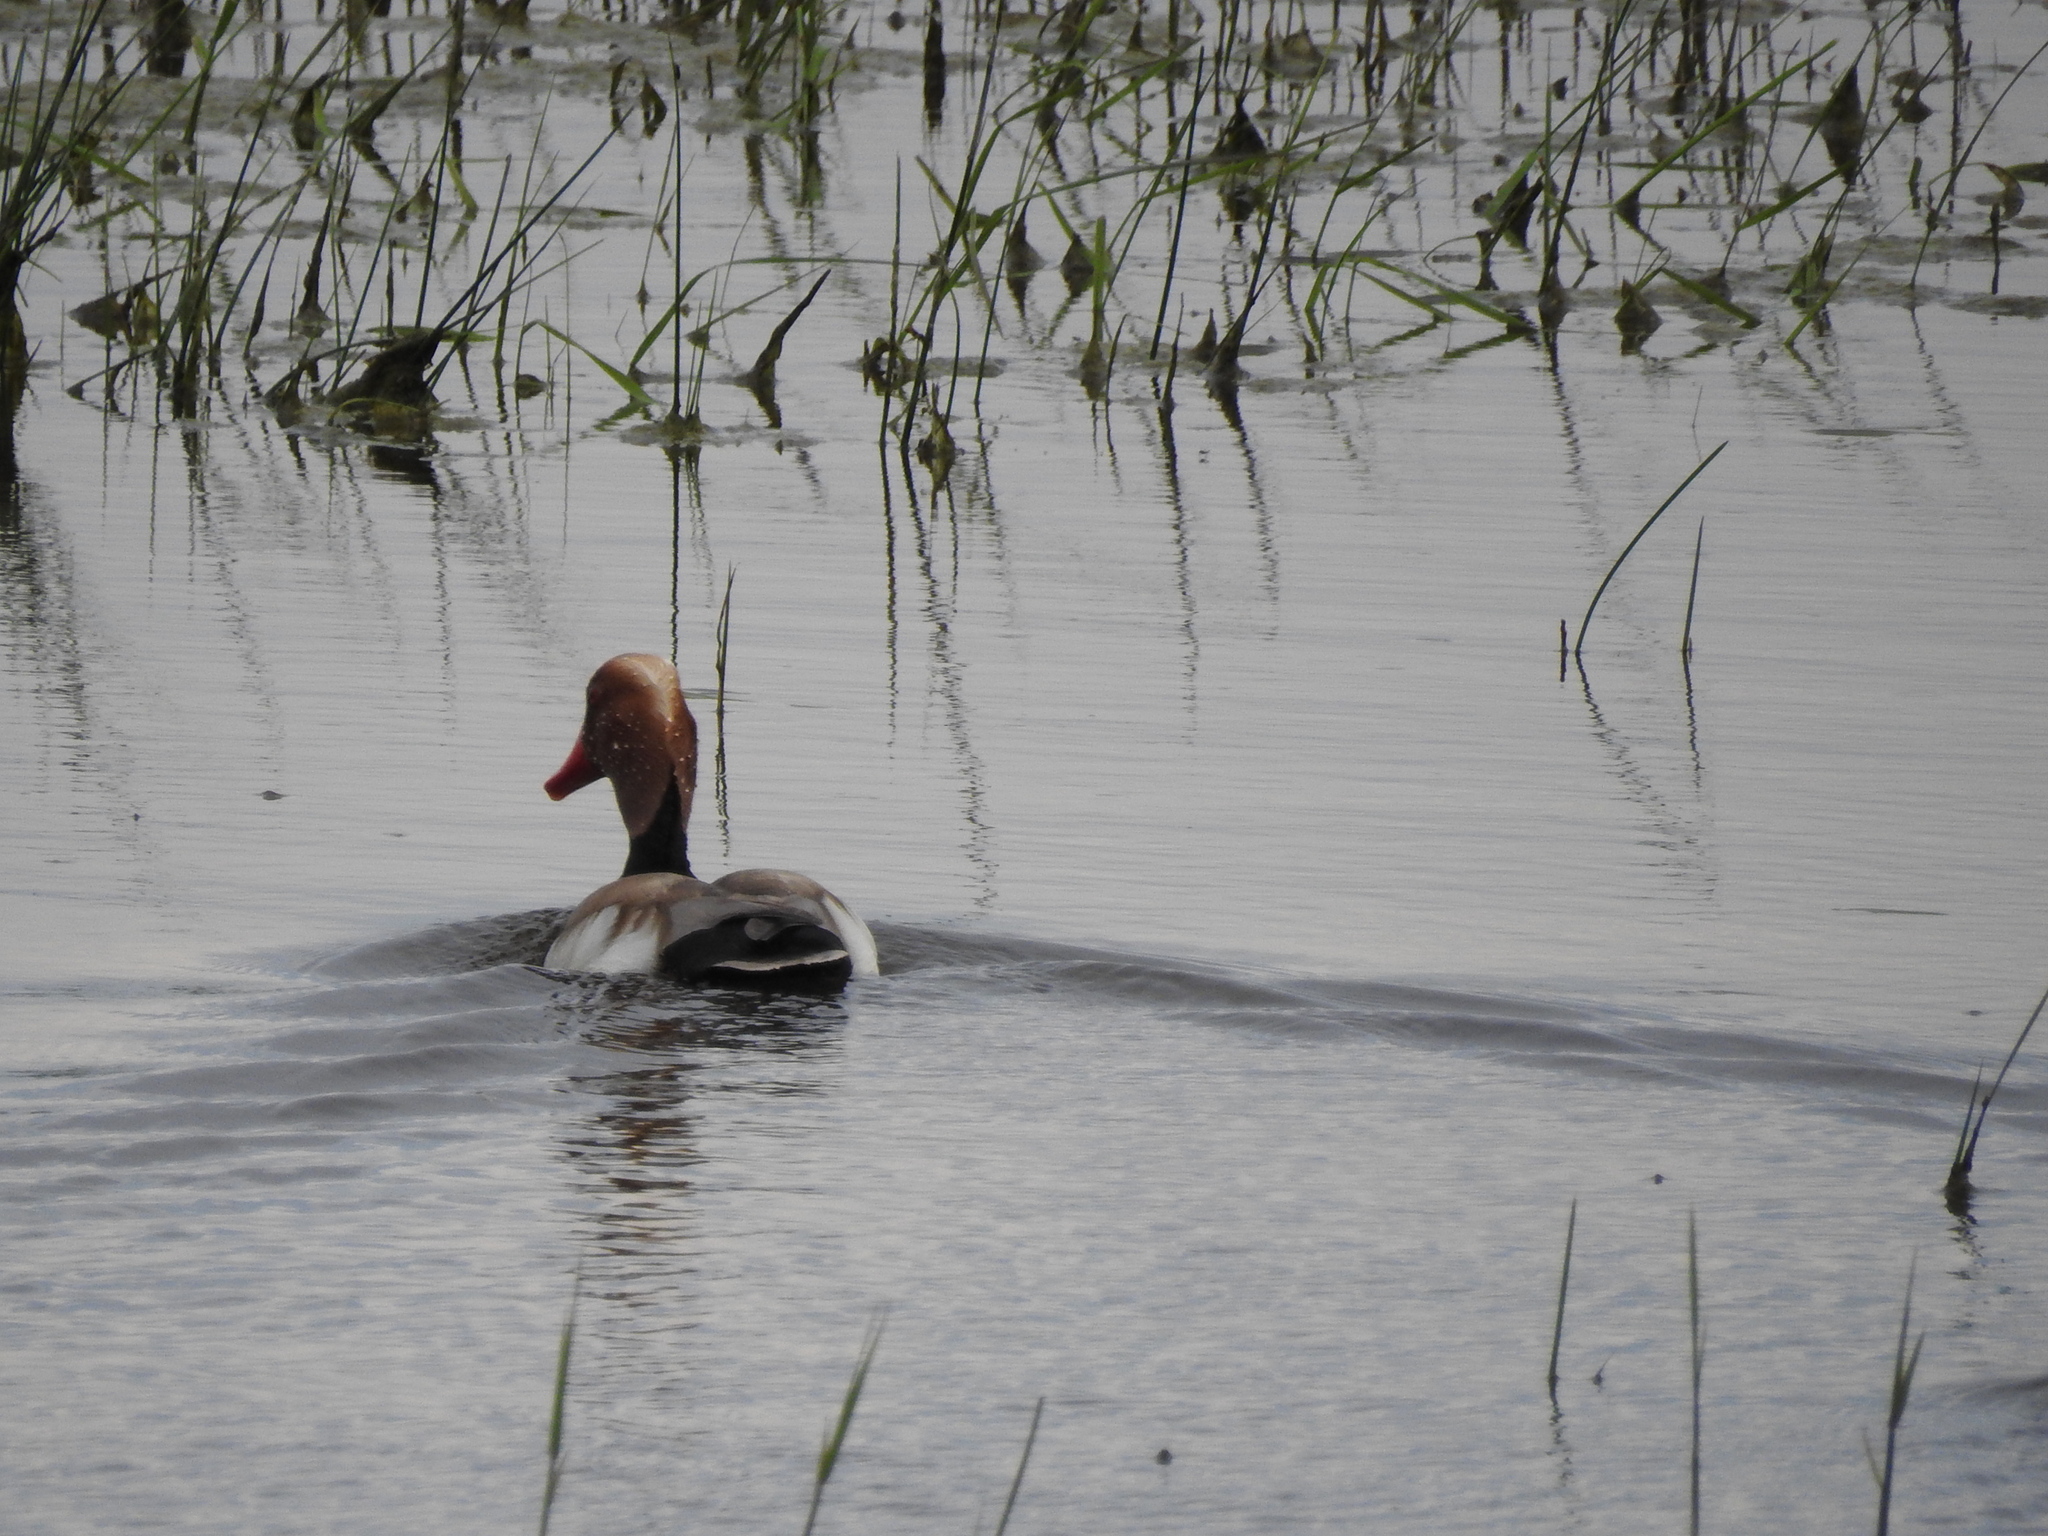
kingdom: Animalia
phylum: Chordata
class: Aves
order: Anseriformes
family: Anatidae
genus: Netta
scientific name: Netta rufina
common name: Red-crested pochard
